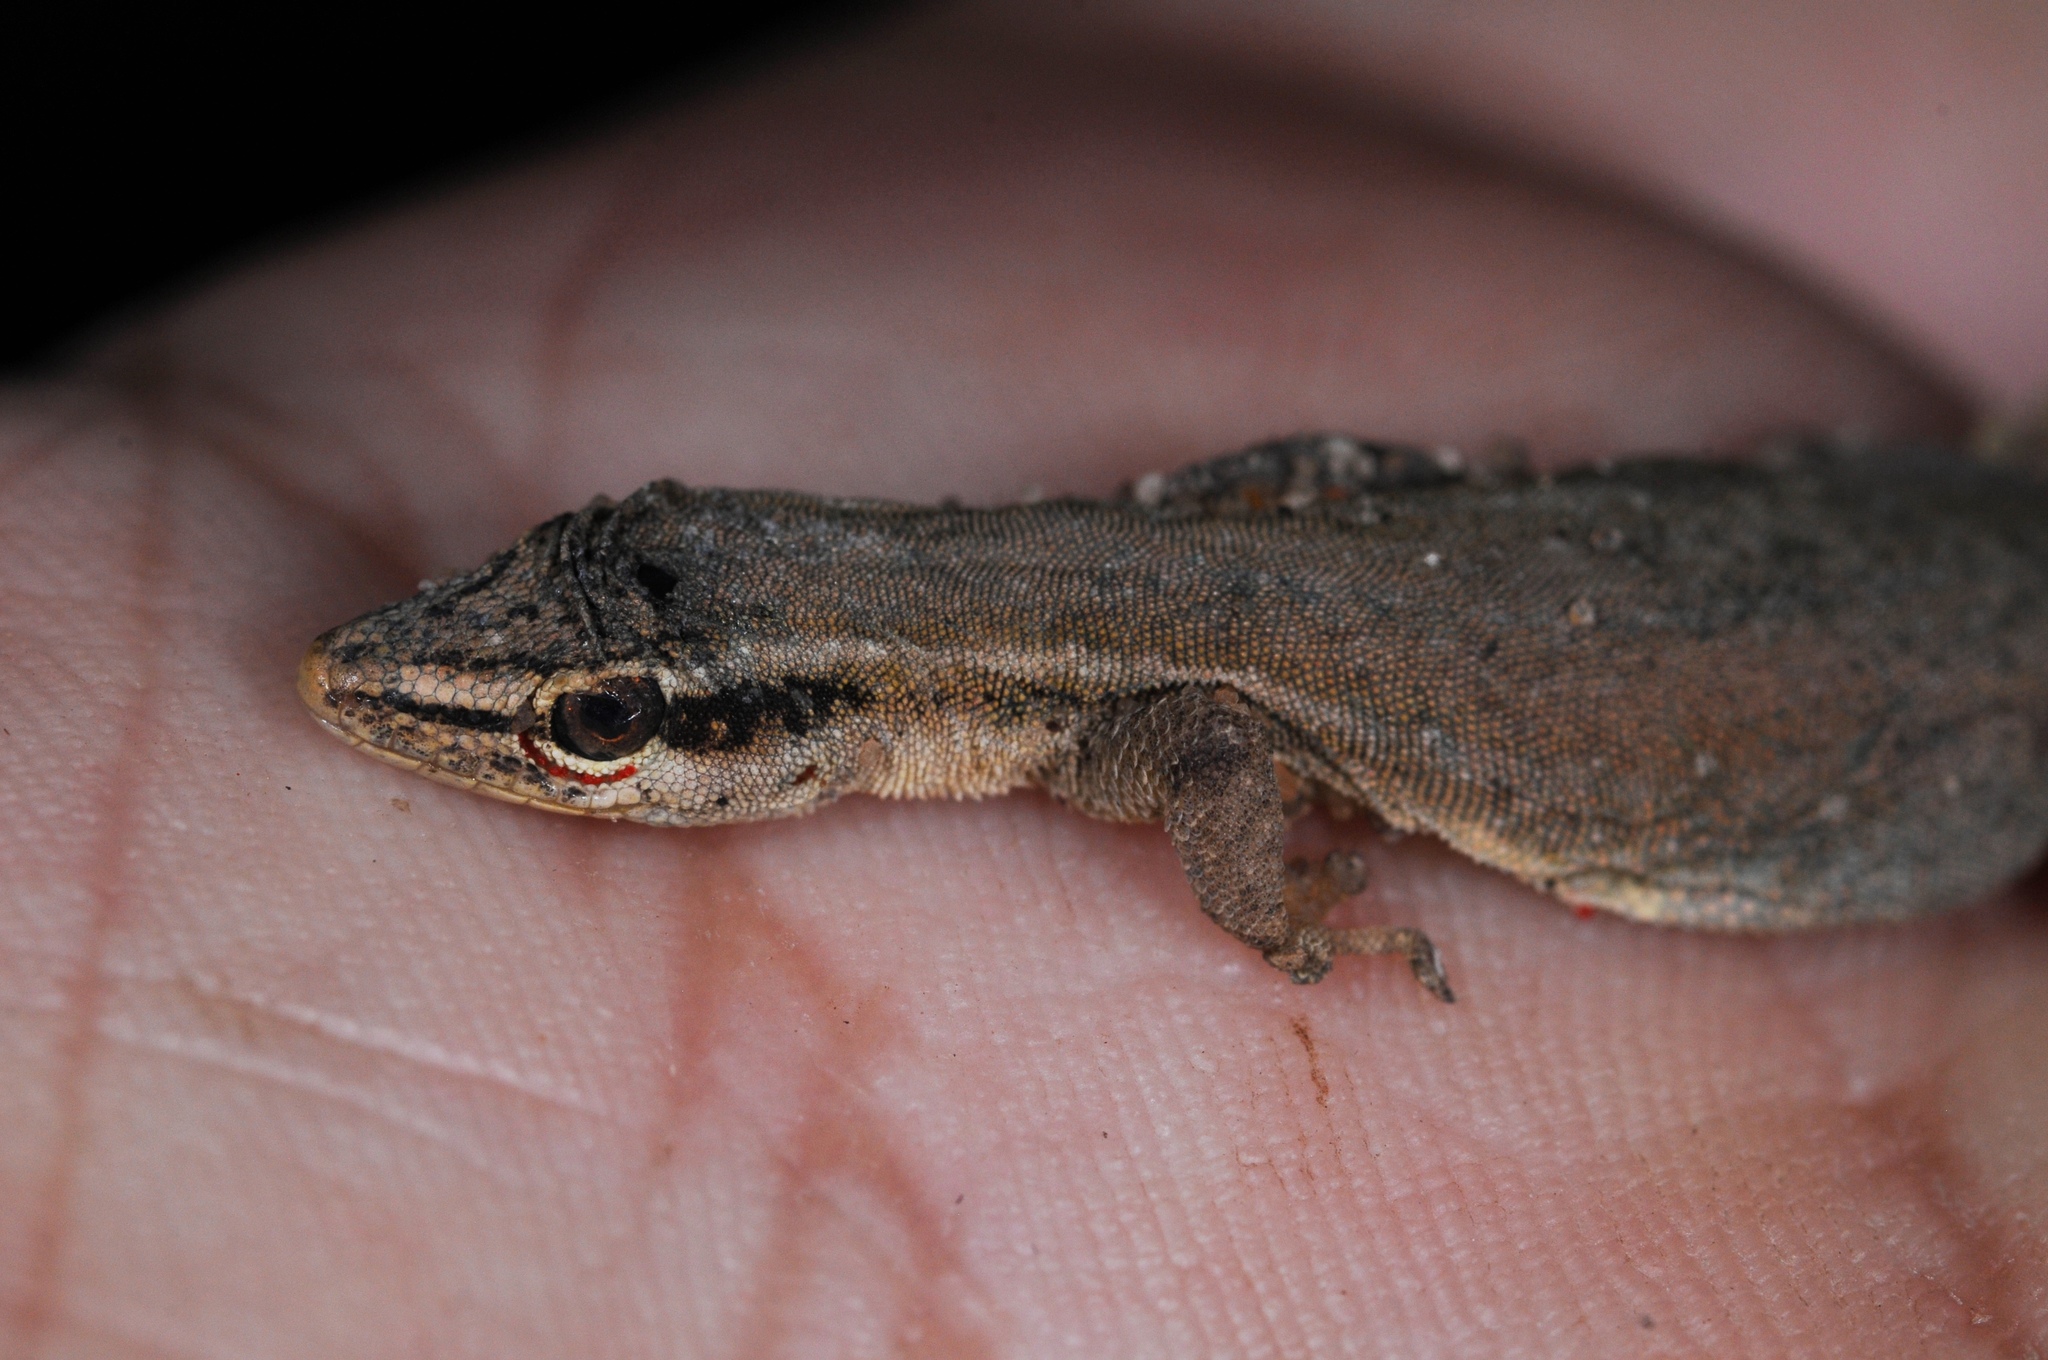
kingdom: Animalia
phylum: Chordata
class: Squamata
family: Gekkonidae
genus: Lygodactylus
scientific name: Lygodactylus grotei
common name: Grote’s dwarf gecko
